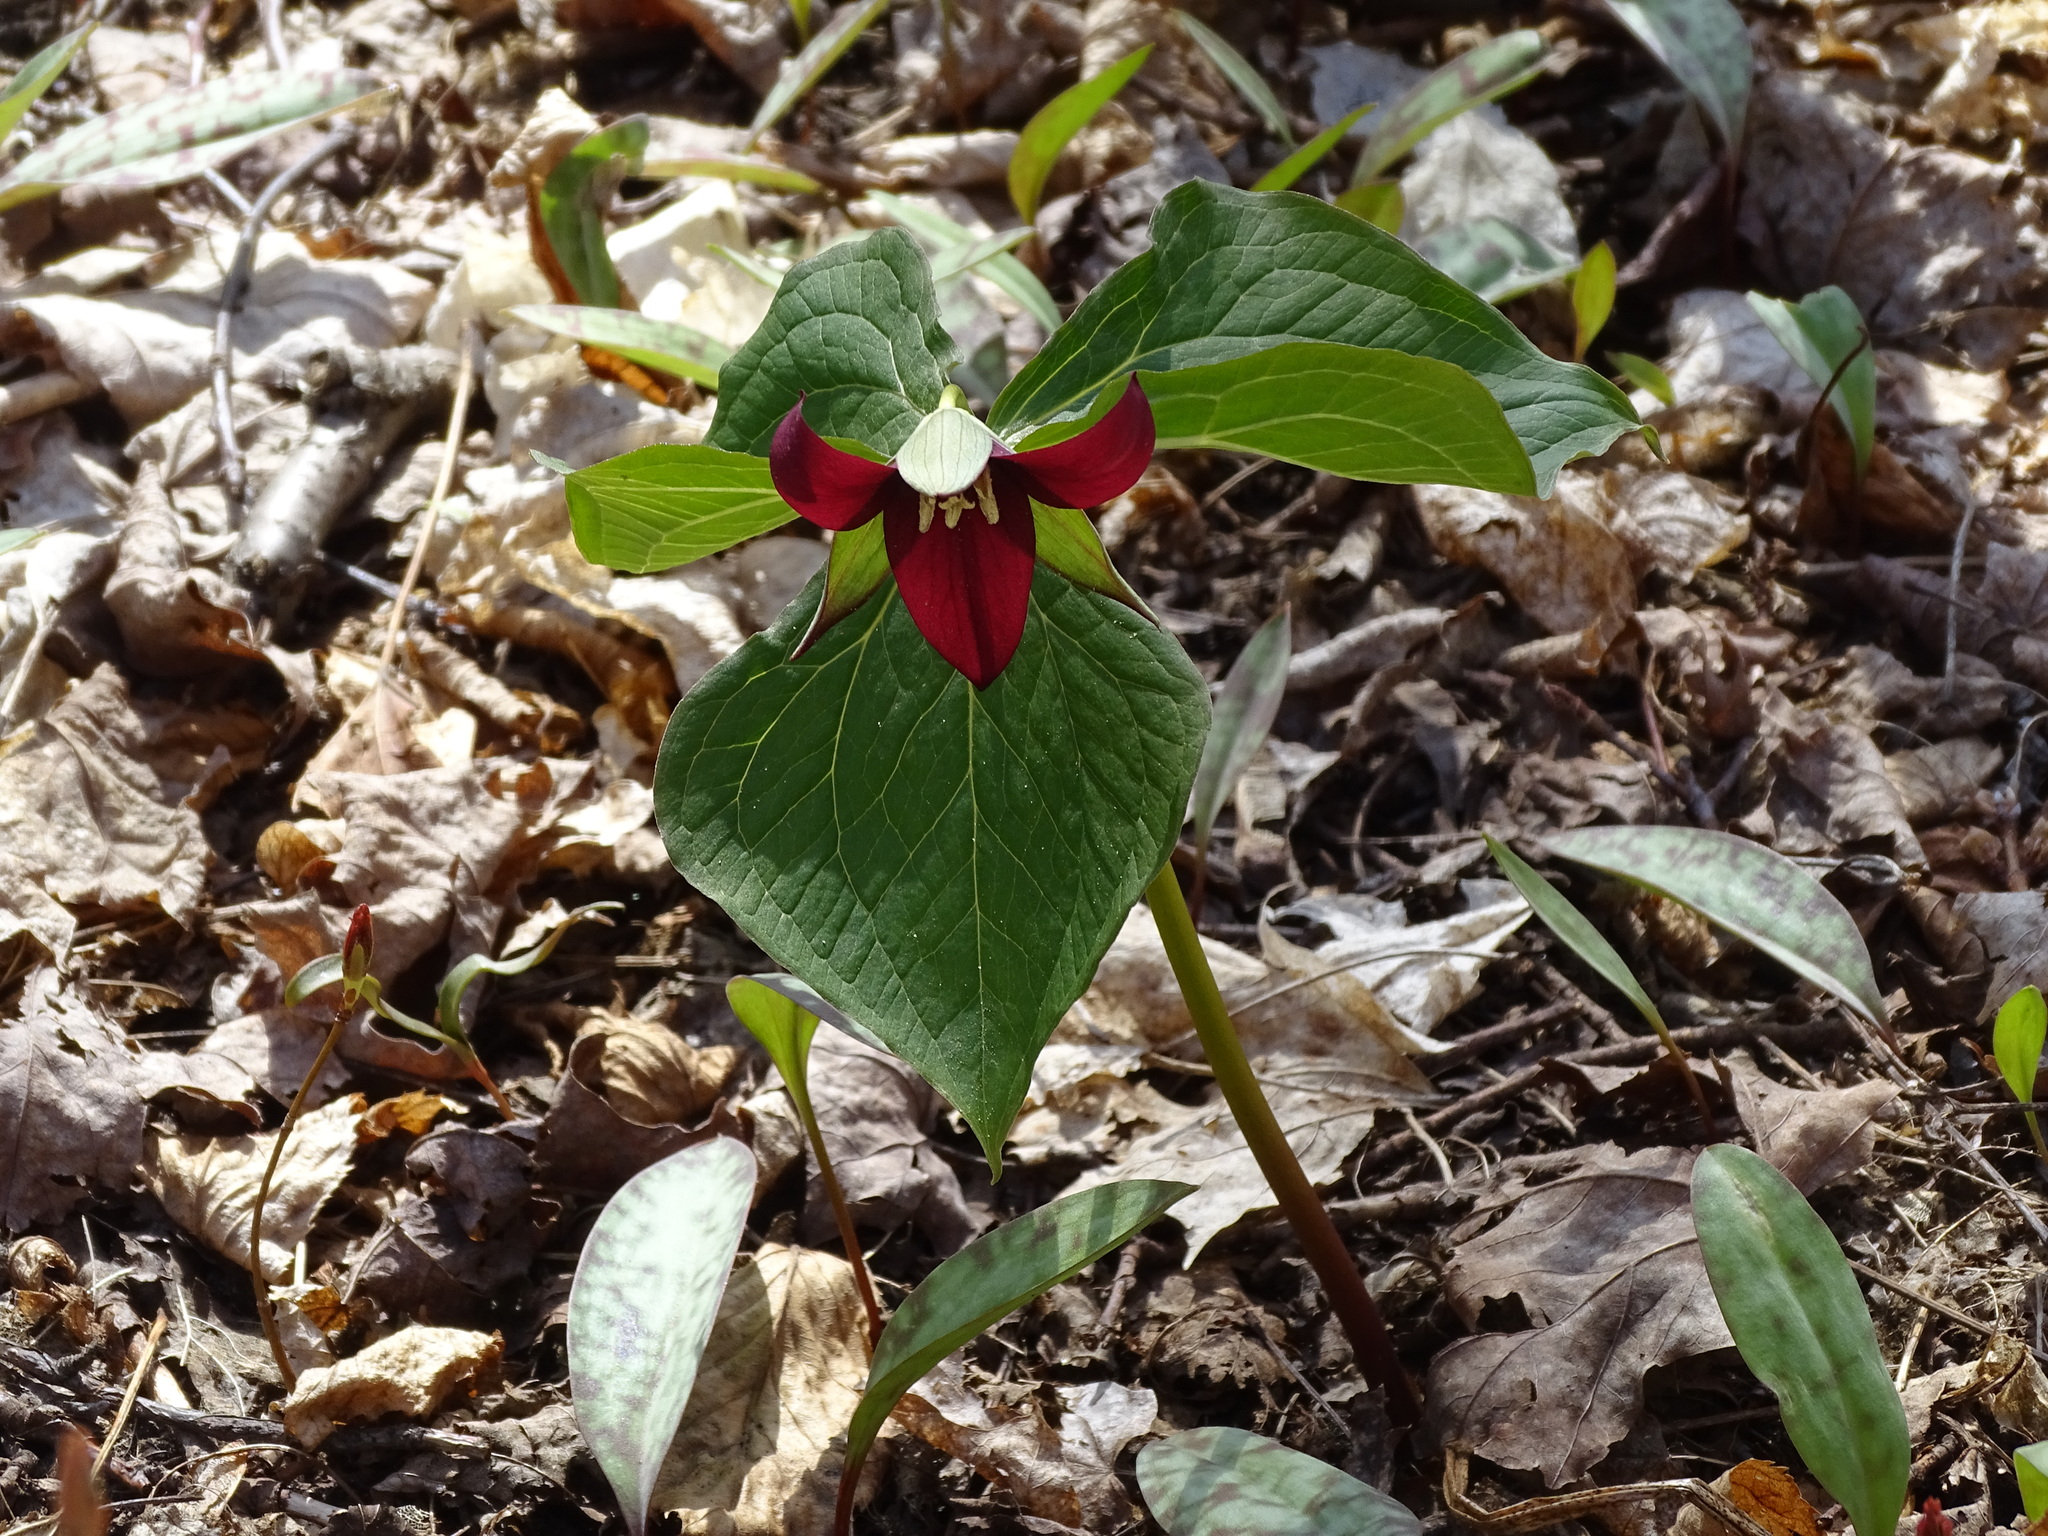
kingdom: Plantae
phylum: Tracheophyta
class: Liliopsida
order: Liliales
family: Melanthiaceae
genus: Trillium
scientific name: Trillium erectum
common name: Purple trillium
